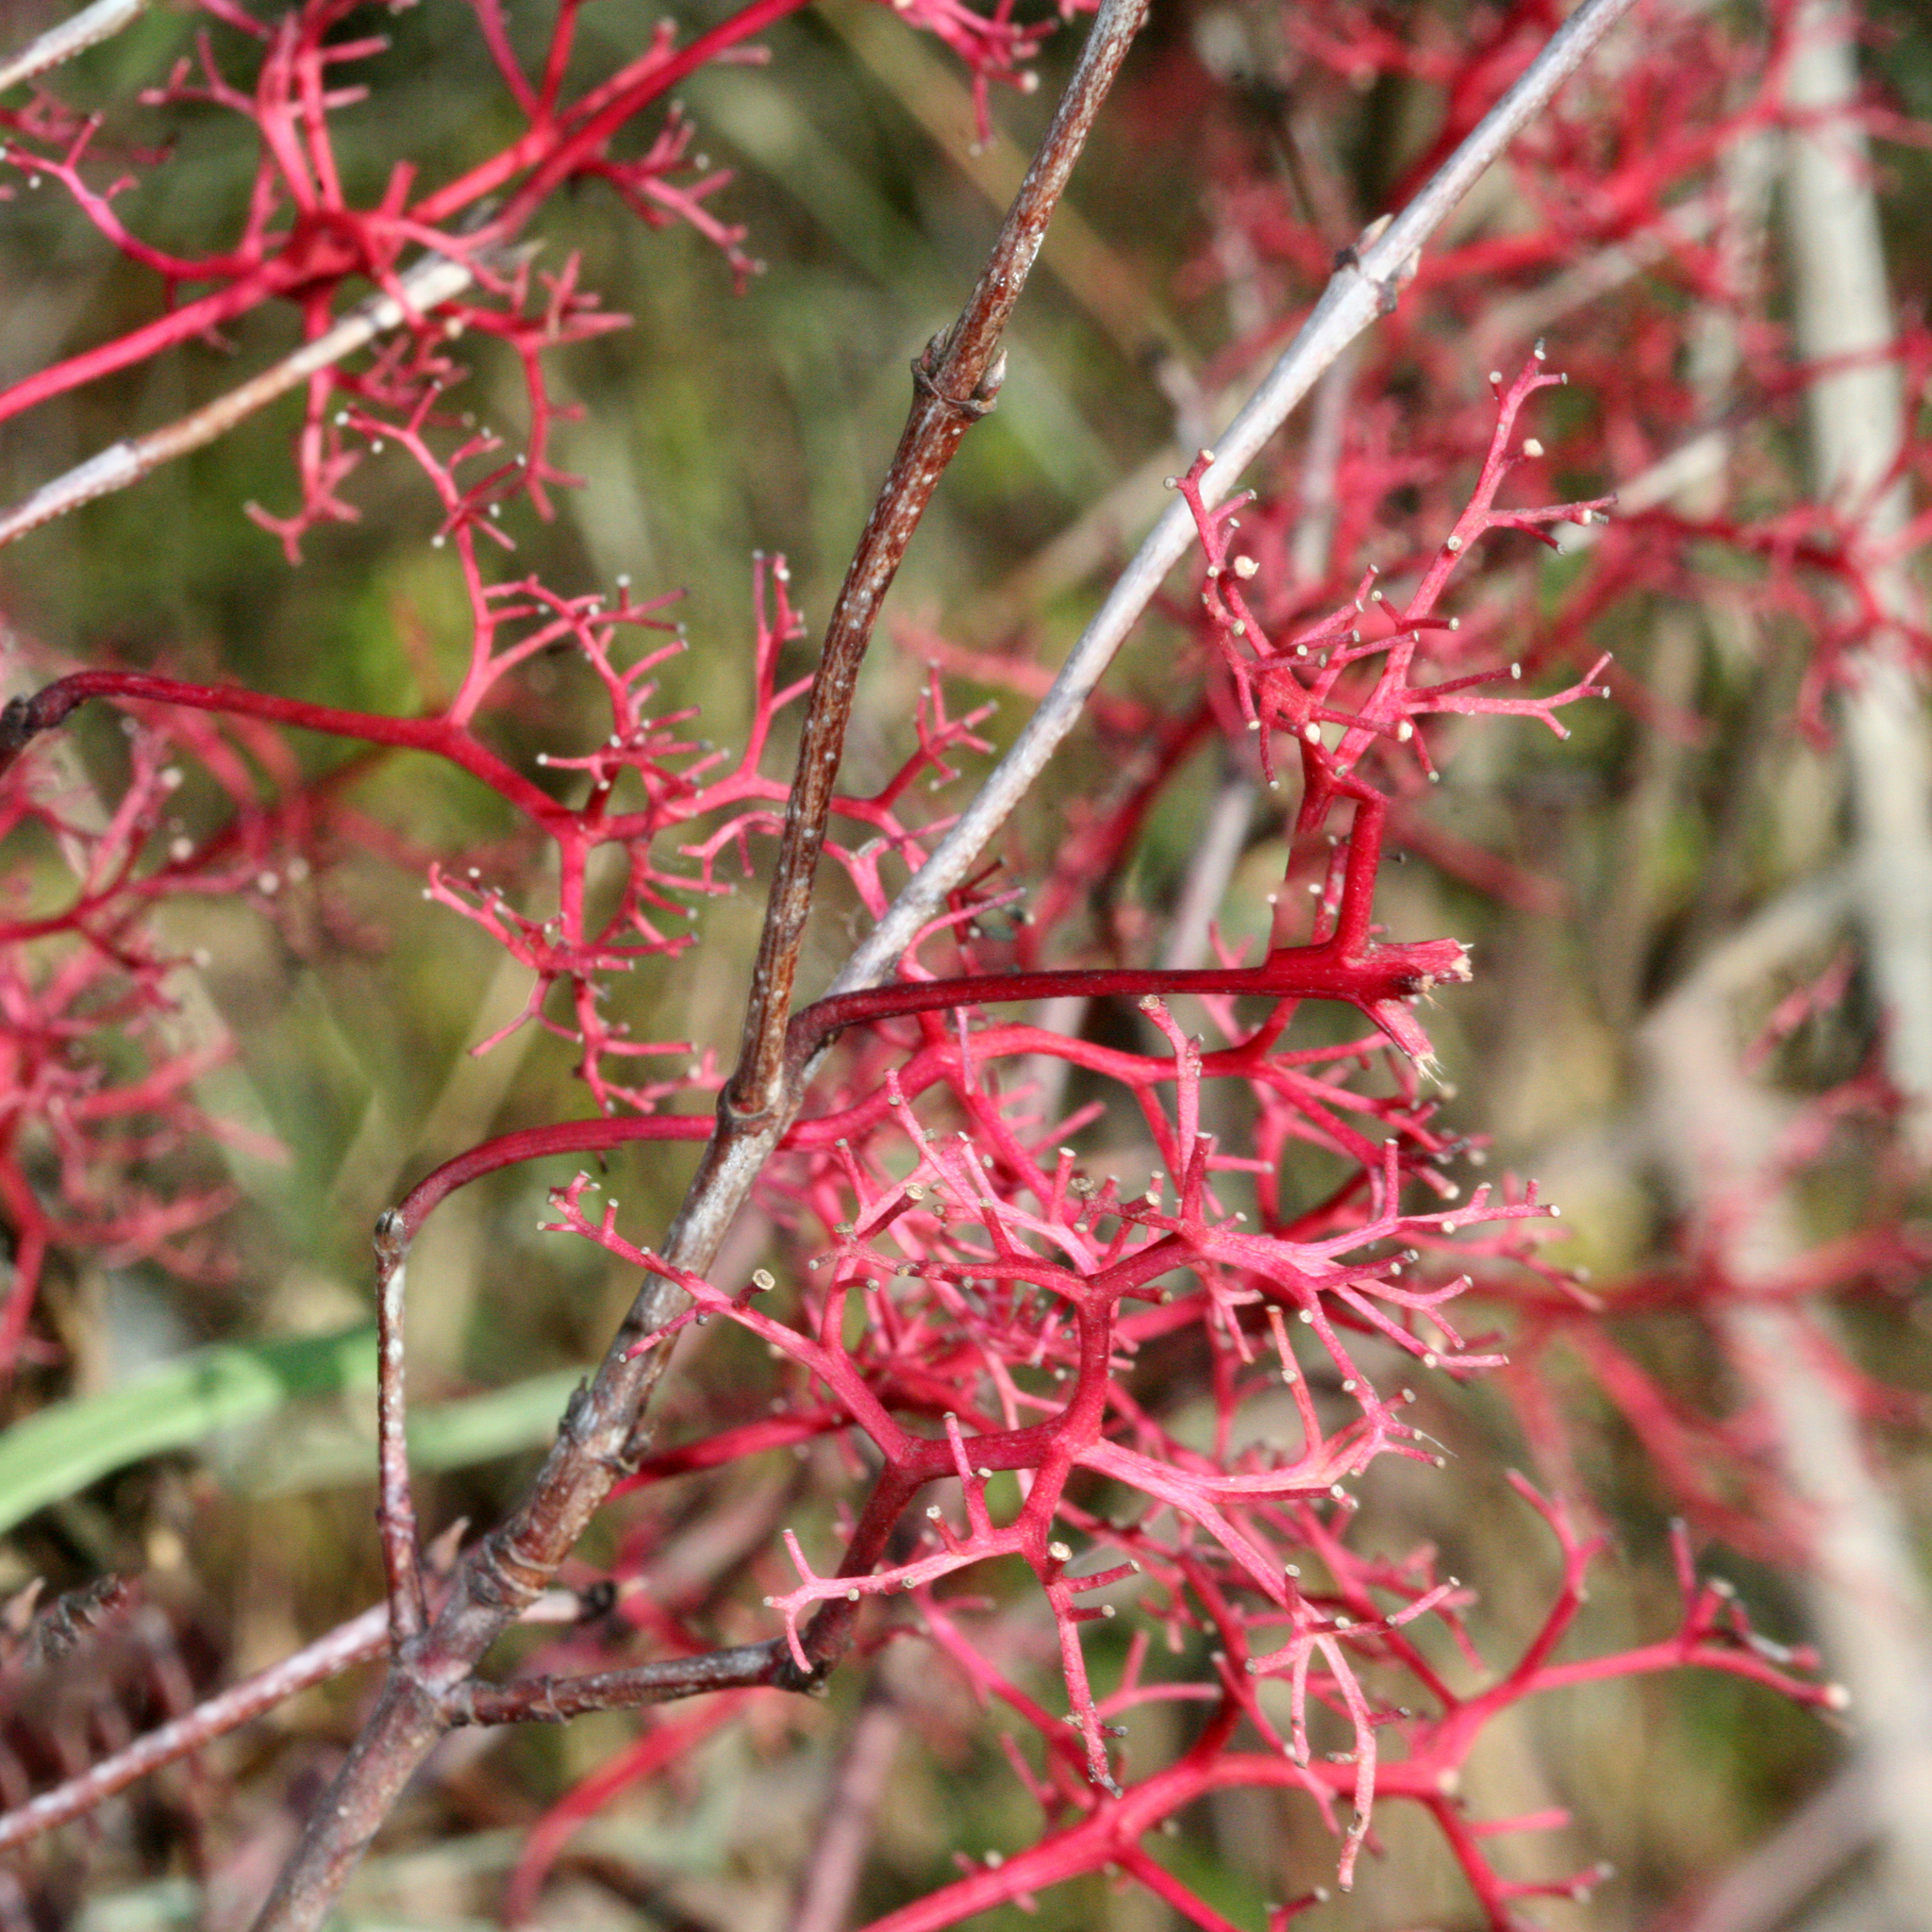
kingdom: Plantae
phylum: Tracheophyta
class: Magnoliopsida
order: Cornales
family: Cornaceae
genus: Cornus
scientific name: Cornus racemosa
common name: Panicled dogwood
